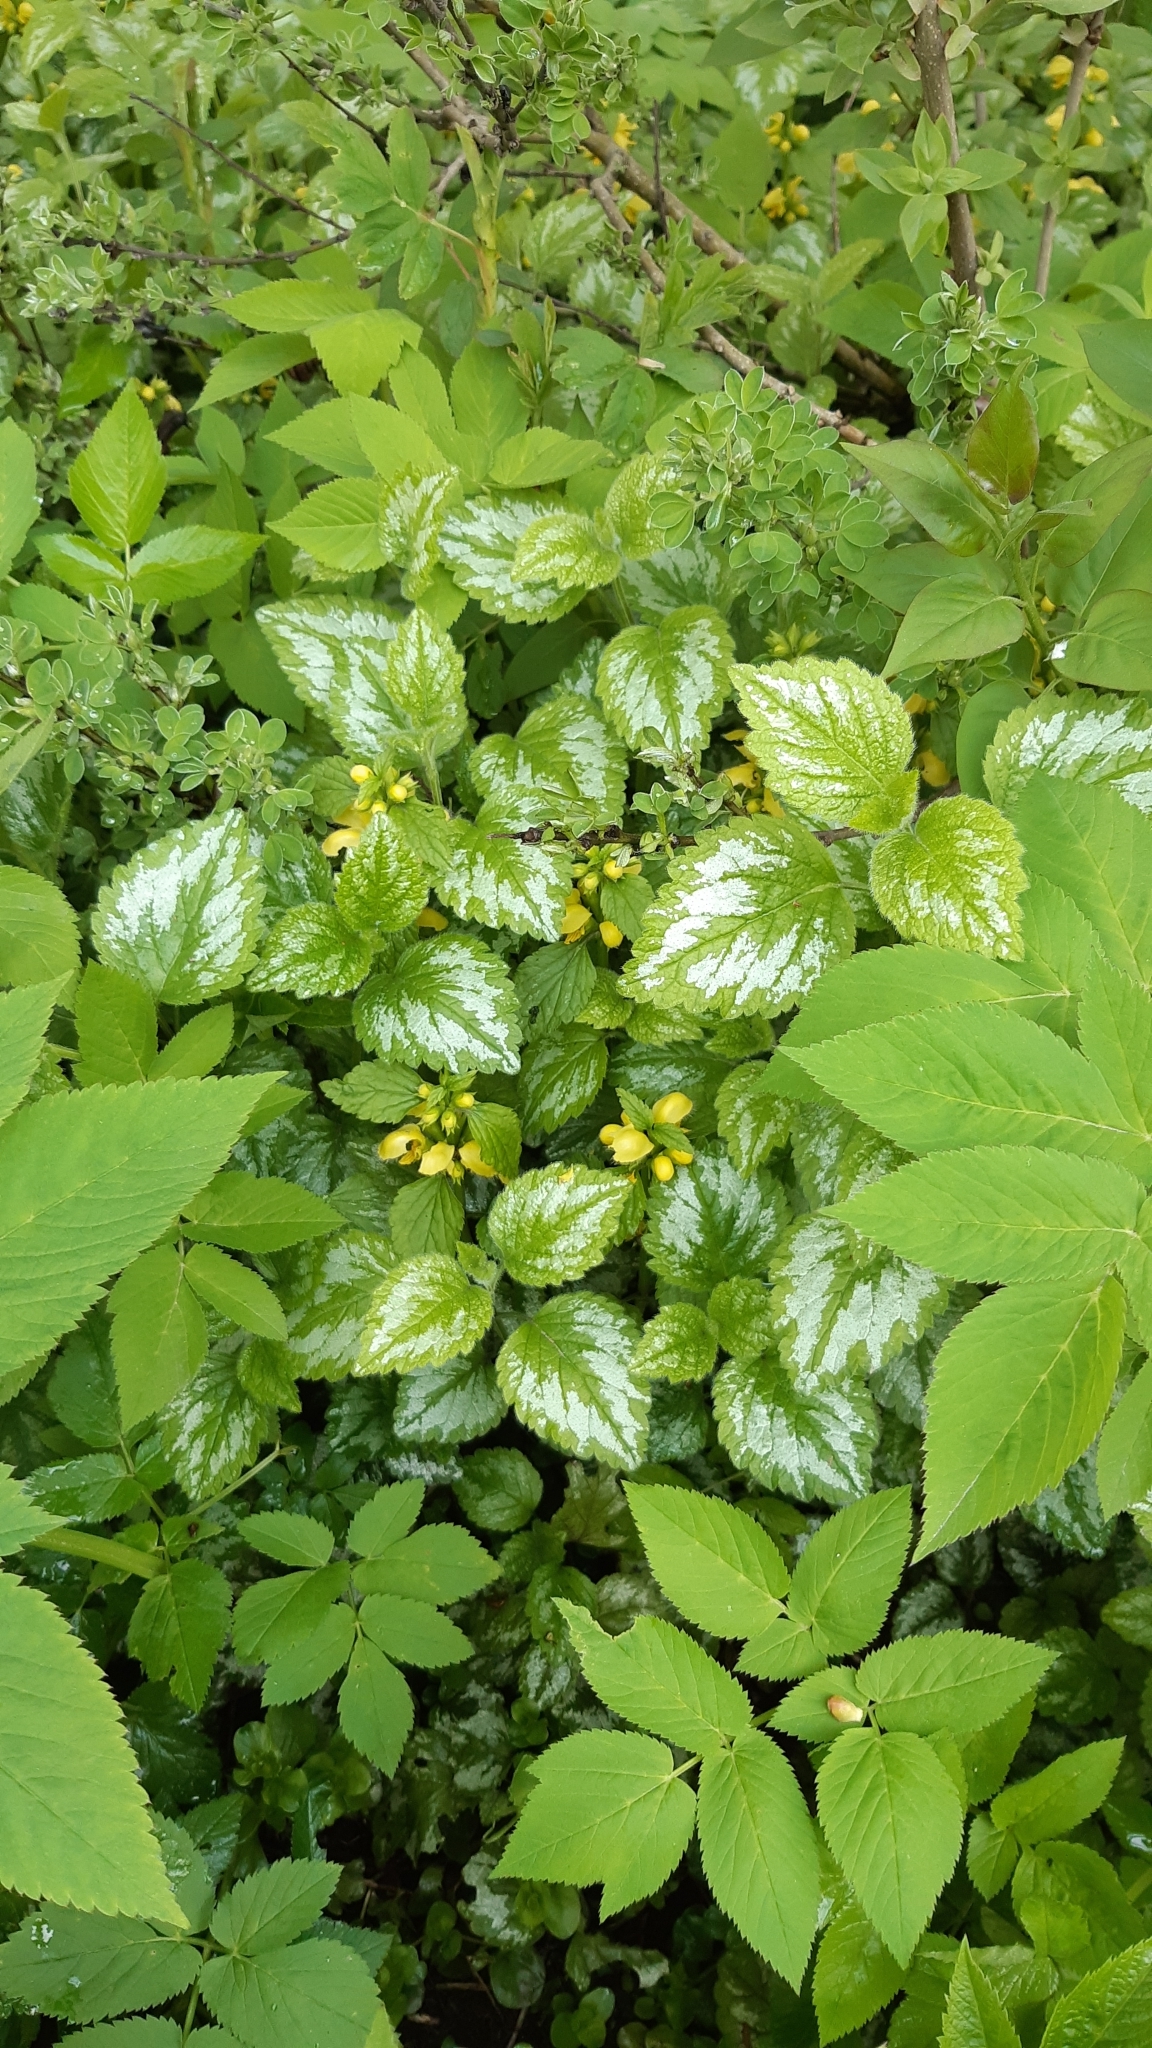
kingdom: Plantae
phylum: Tracheophyta
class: Magnoliopsida
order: Lamiales
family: Lamiaceae
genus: Lamium
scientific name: Lamium galeobdolon
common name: Yellow archangel
